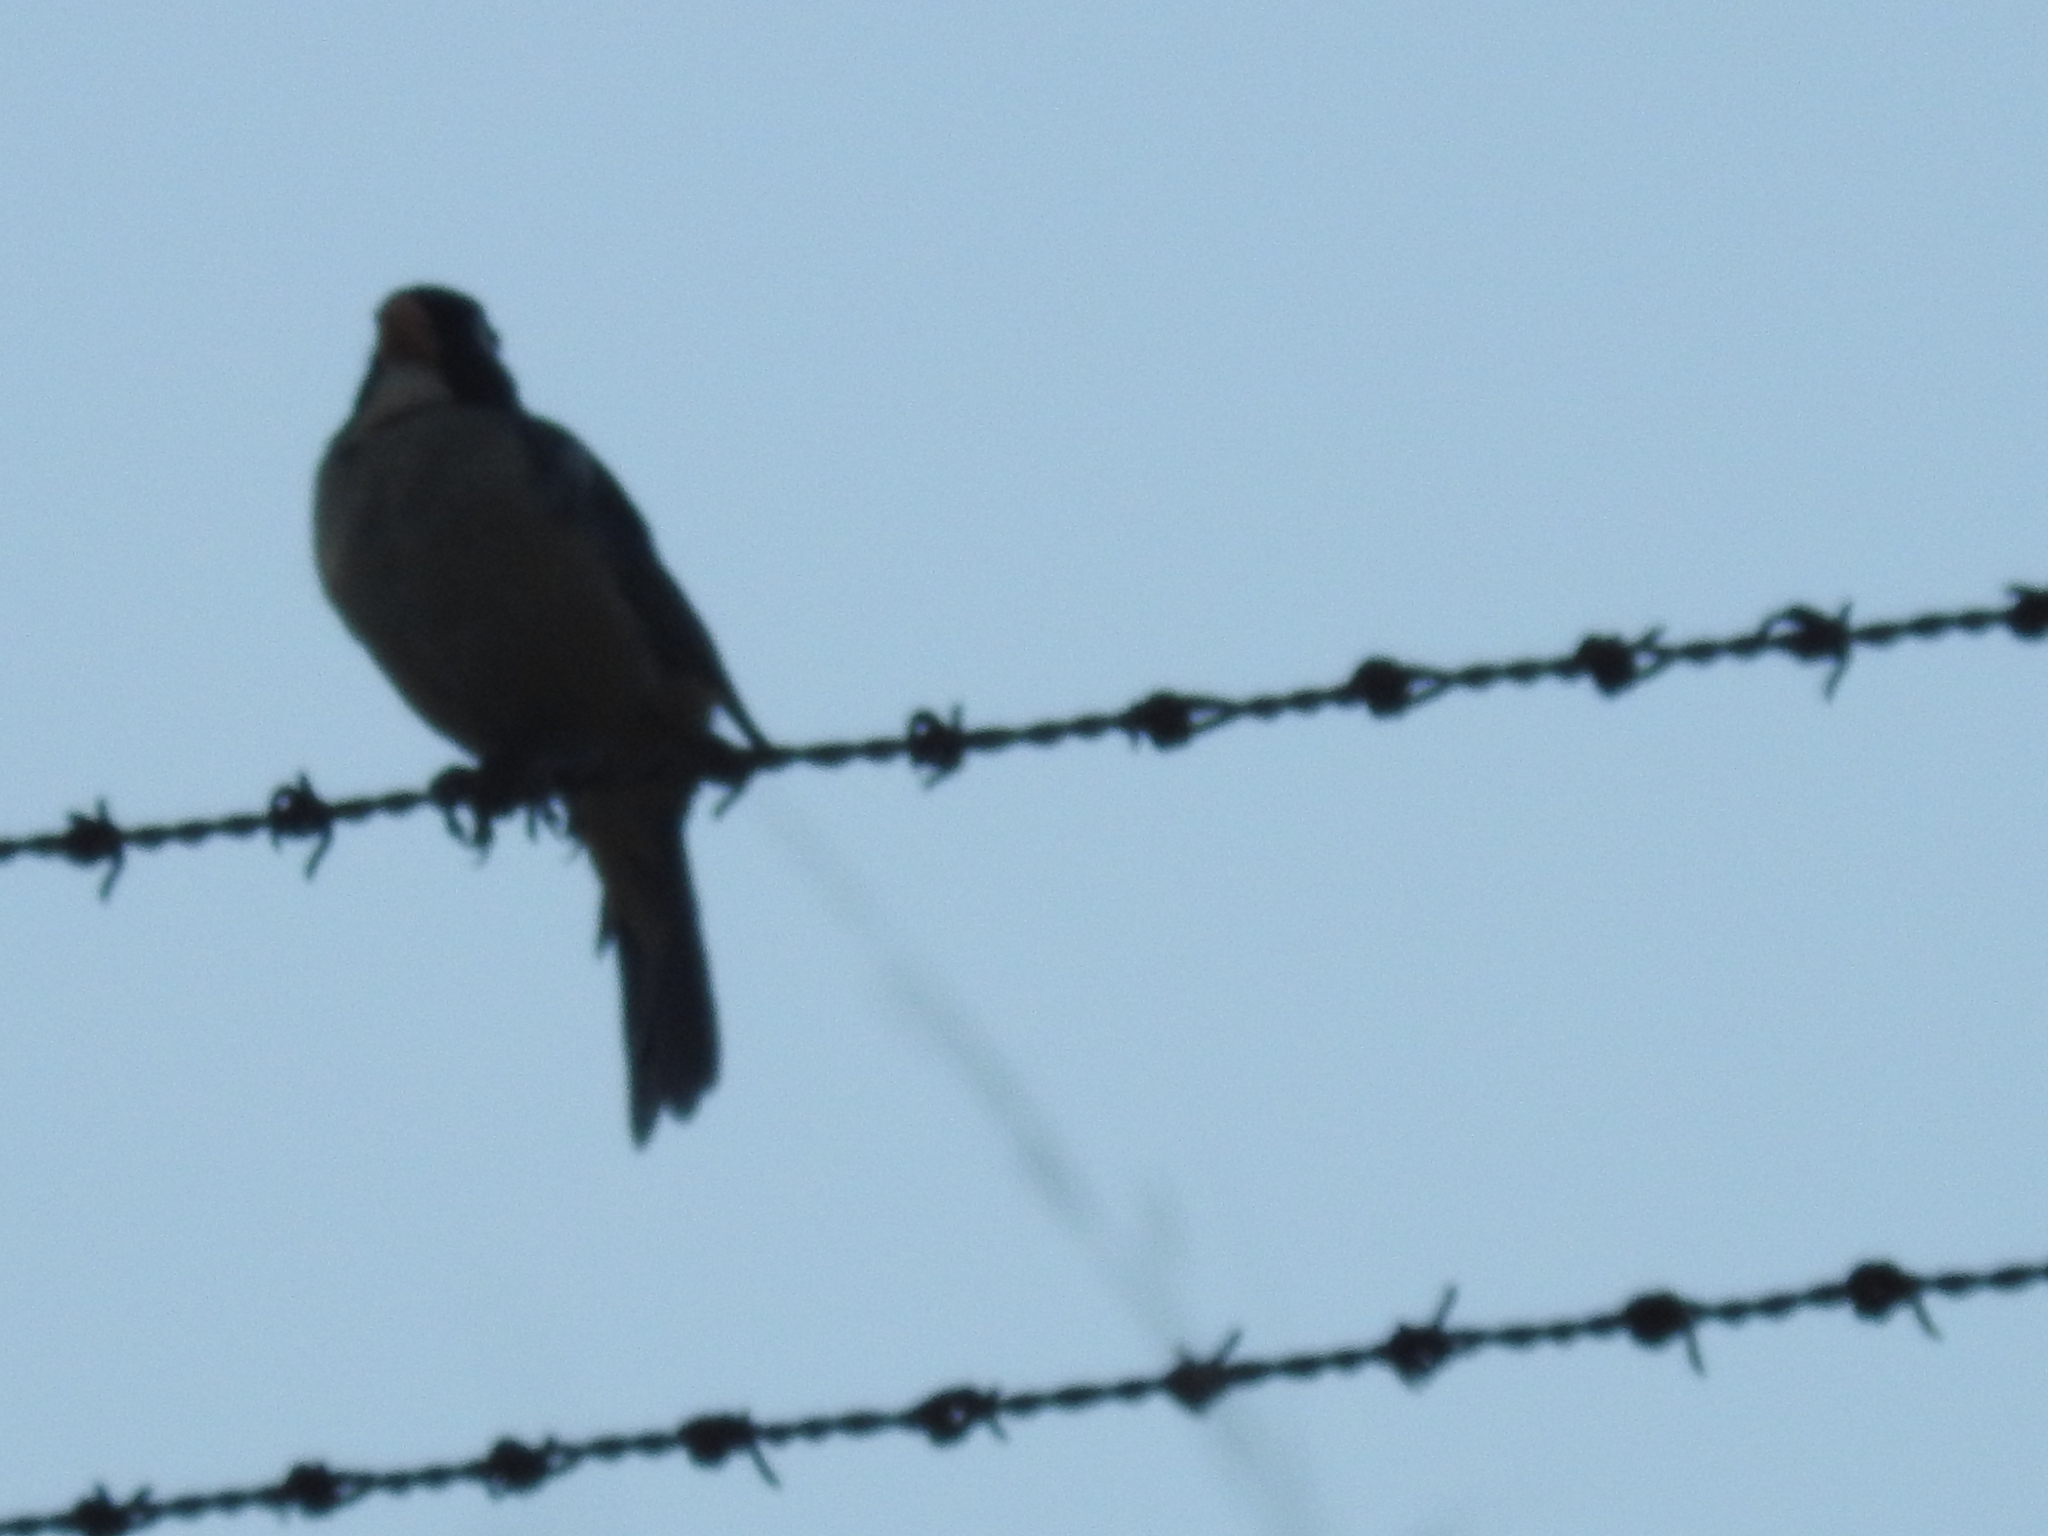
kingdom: Animalia
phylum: Chordata
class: Aves
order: Passeriformes
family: Thraupidae
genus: Saltator
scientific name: Saltator aurantiirostris
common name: Golden-billed saltator
